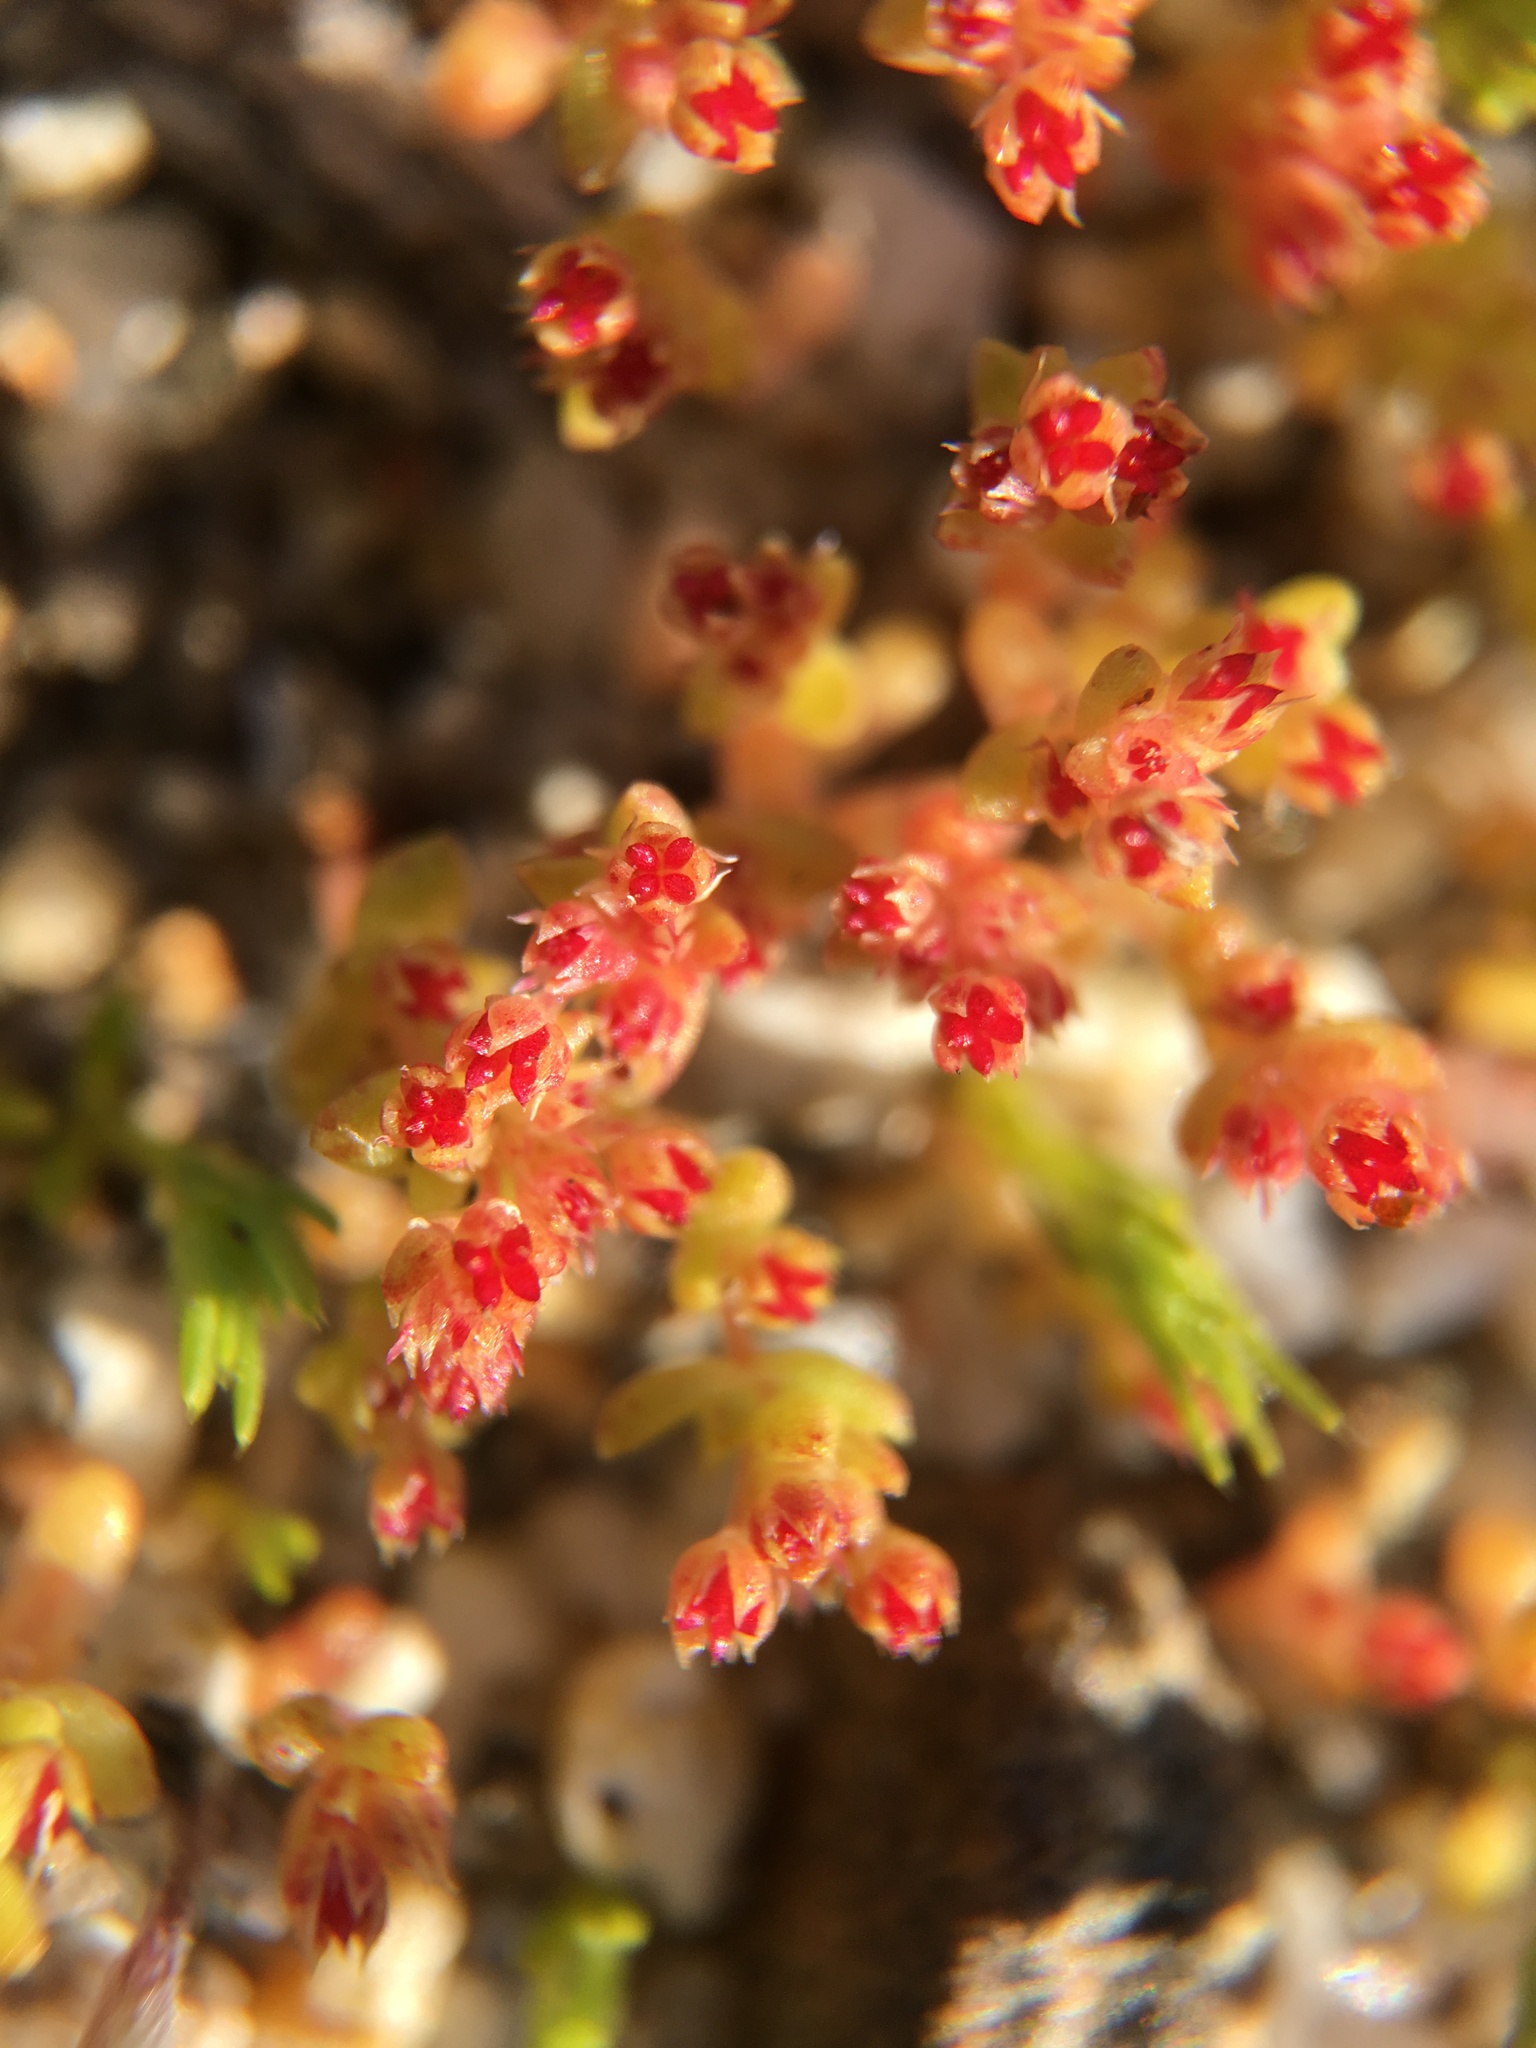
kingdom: Plantae
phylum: Tracheophyta
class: Magnoliopsida
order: Saxifragales
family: Crassulaceae
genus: Crassula
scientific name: Crassula connata
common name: Erect pygmyweed
